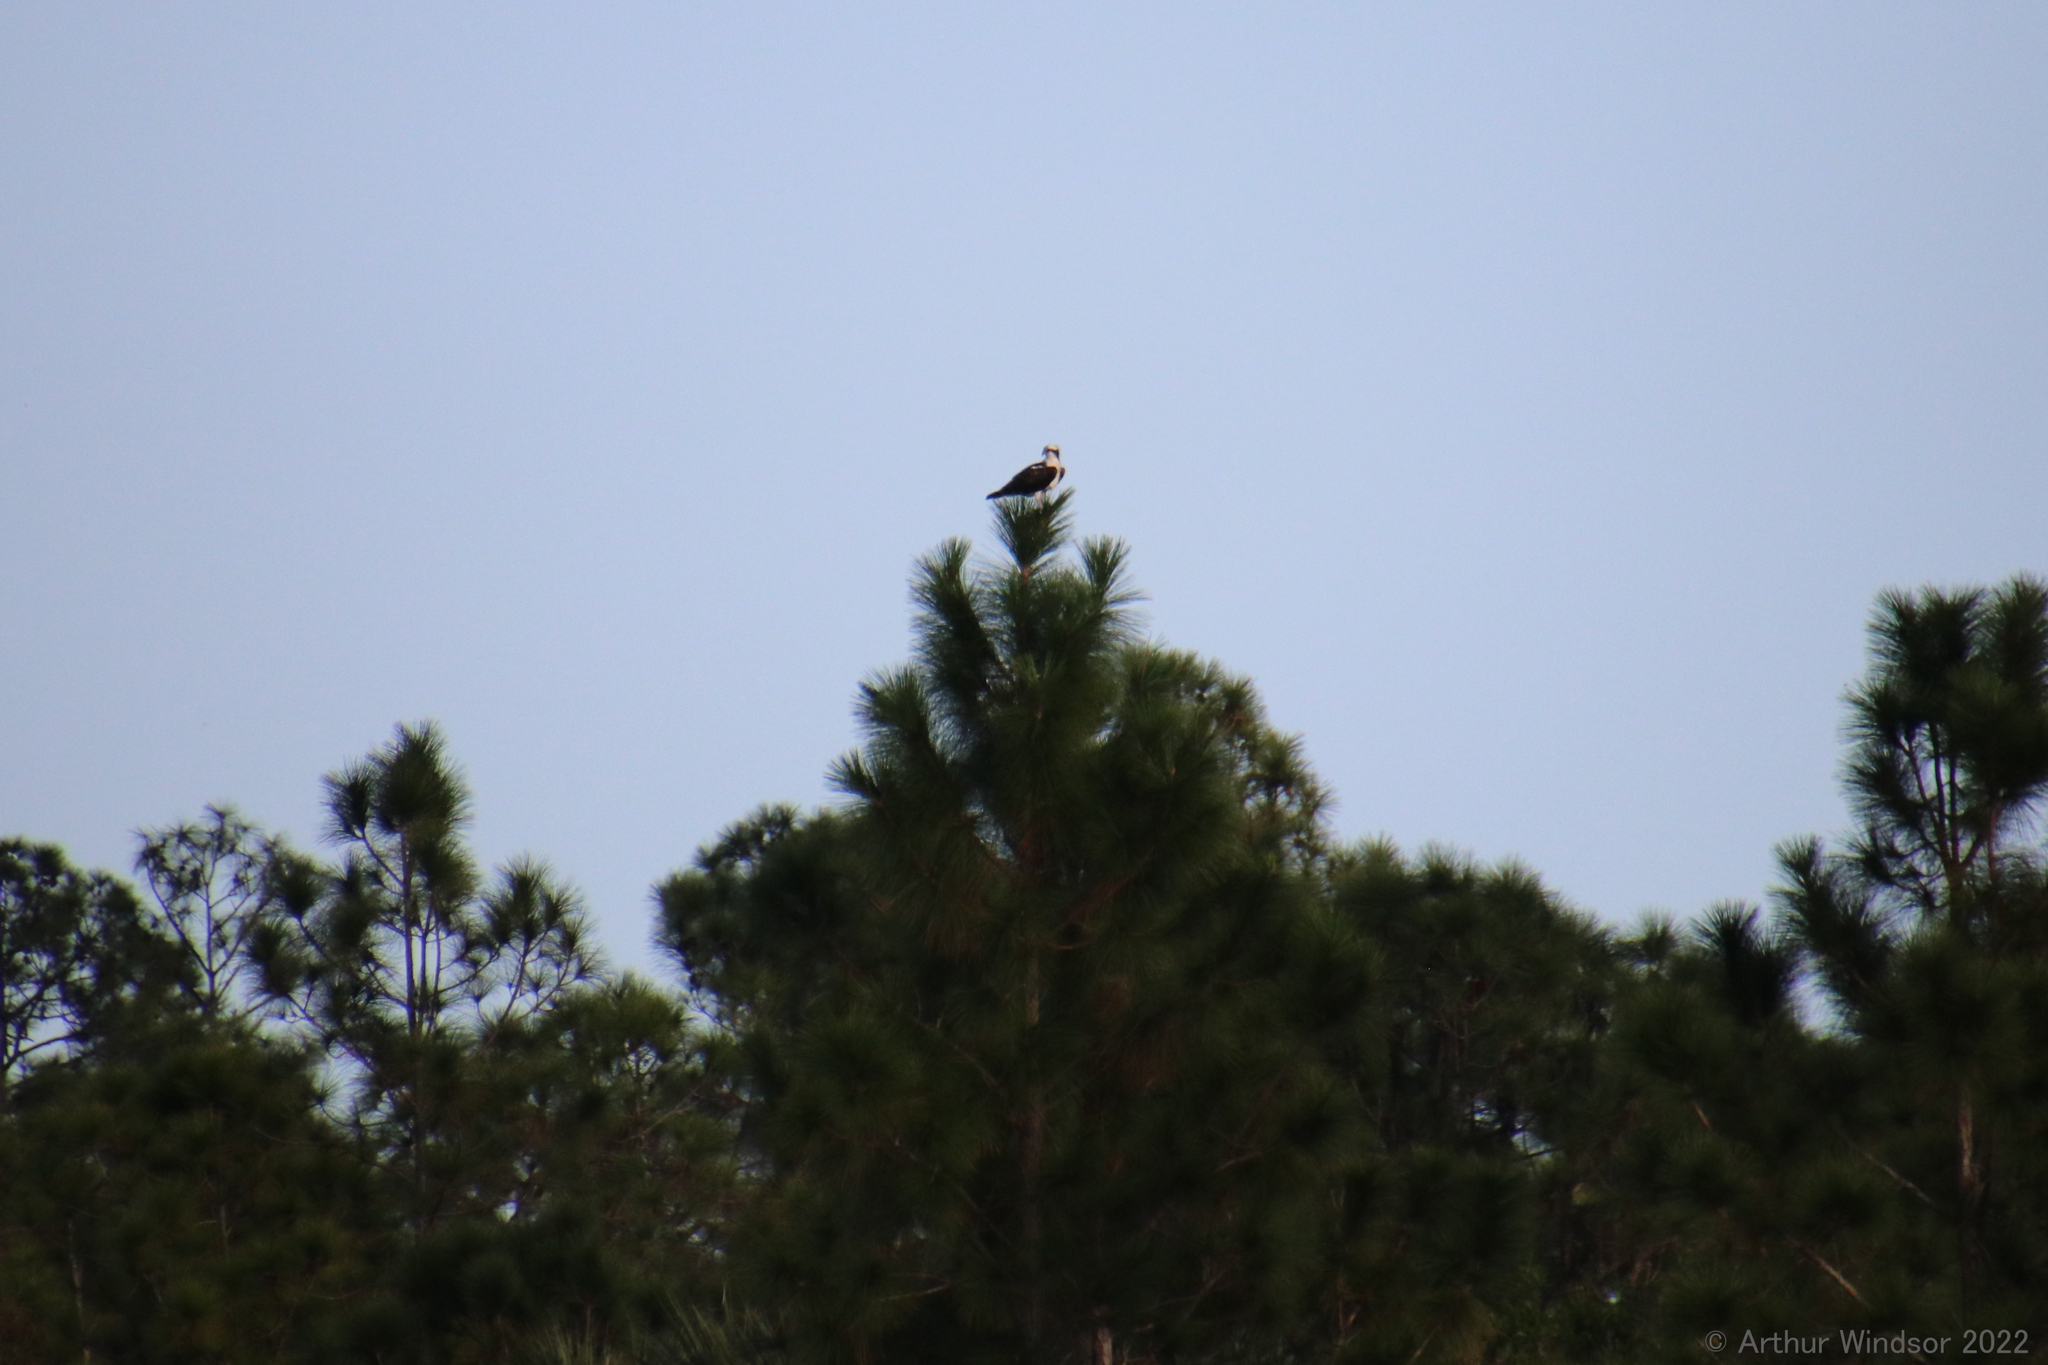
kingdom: Animalia
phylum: Chordata
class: Aves
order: Accipitriformes
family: Pandionidae
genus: Pandion
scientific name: Pandion haliaetus
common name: Osprey
